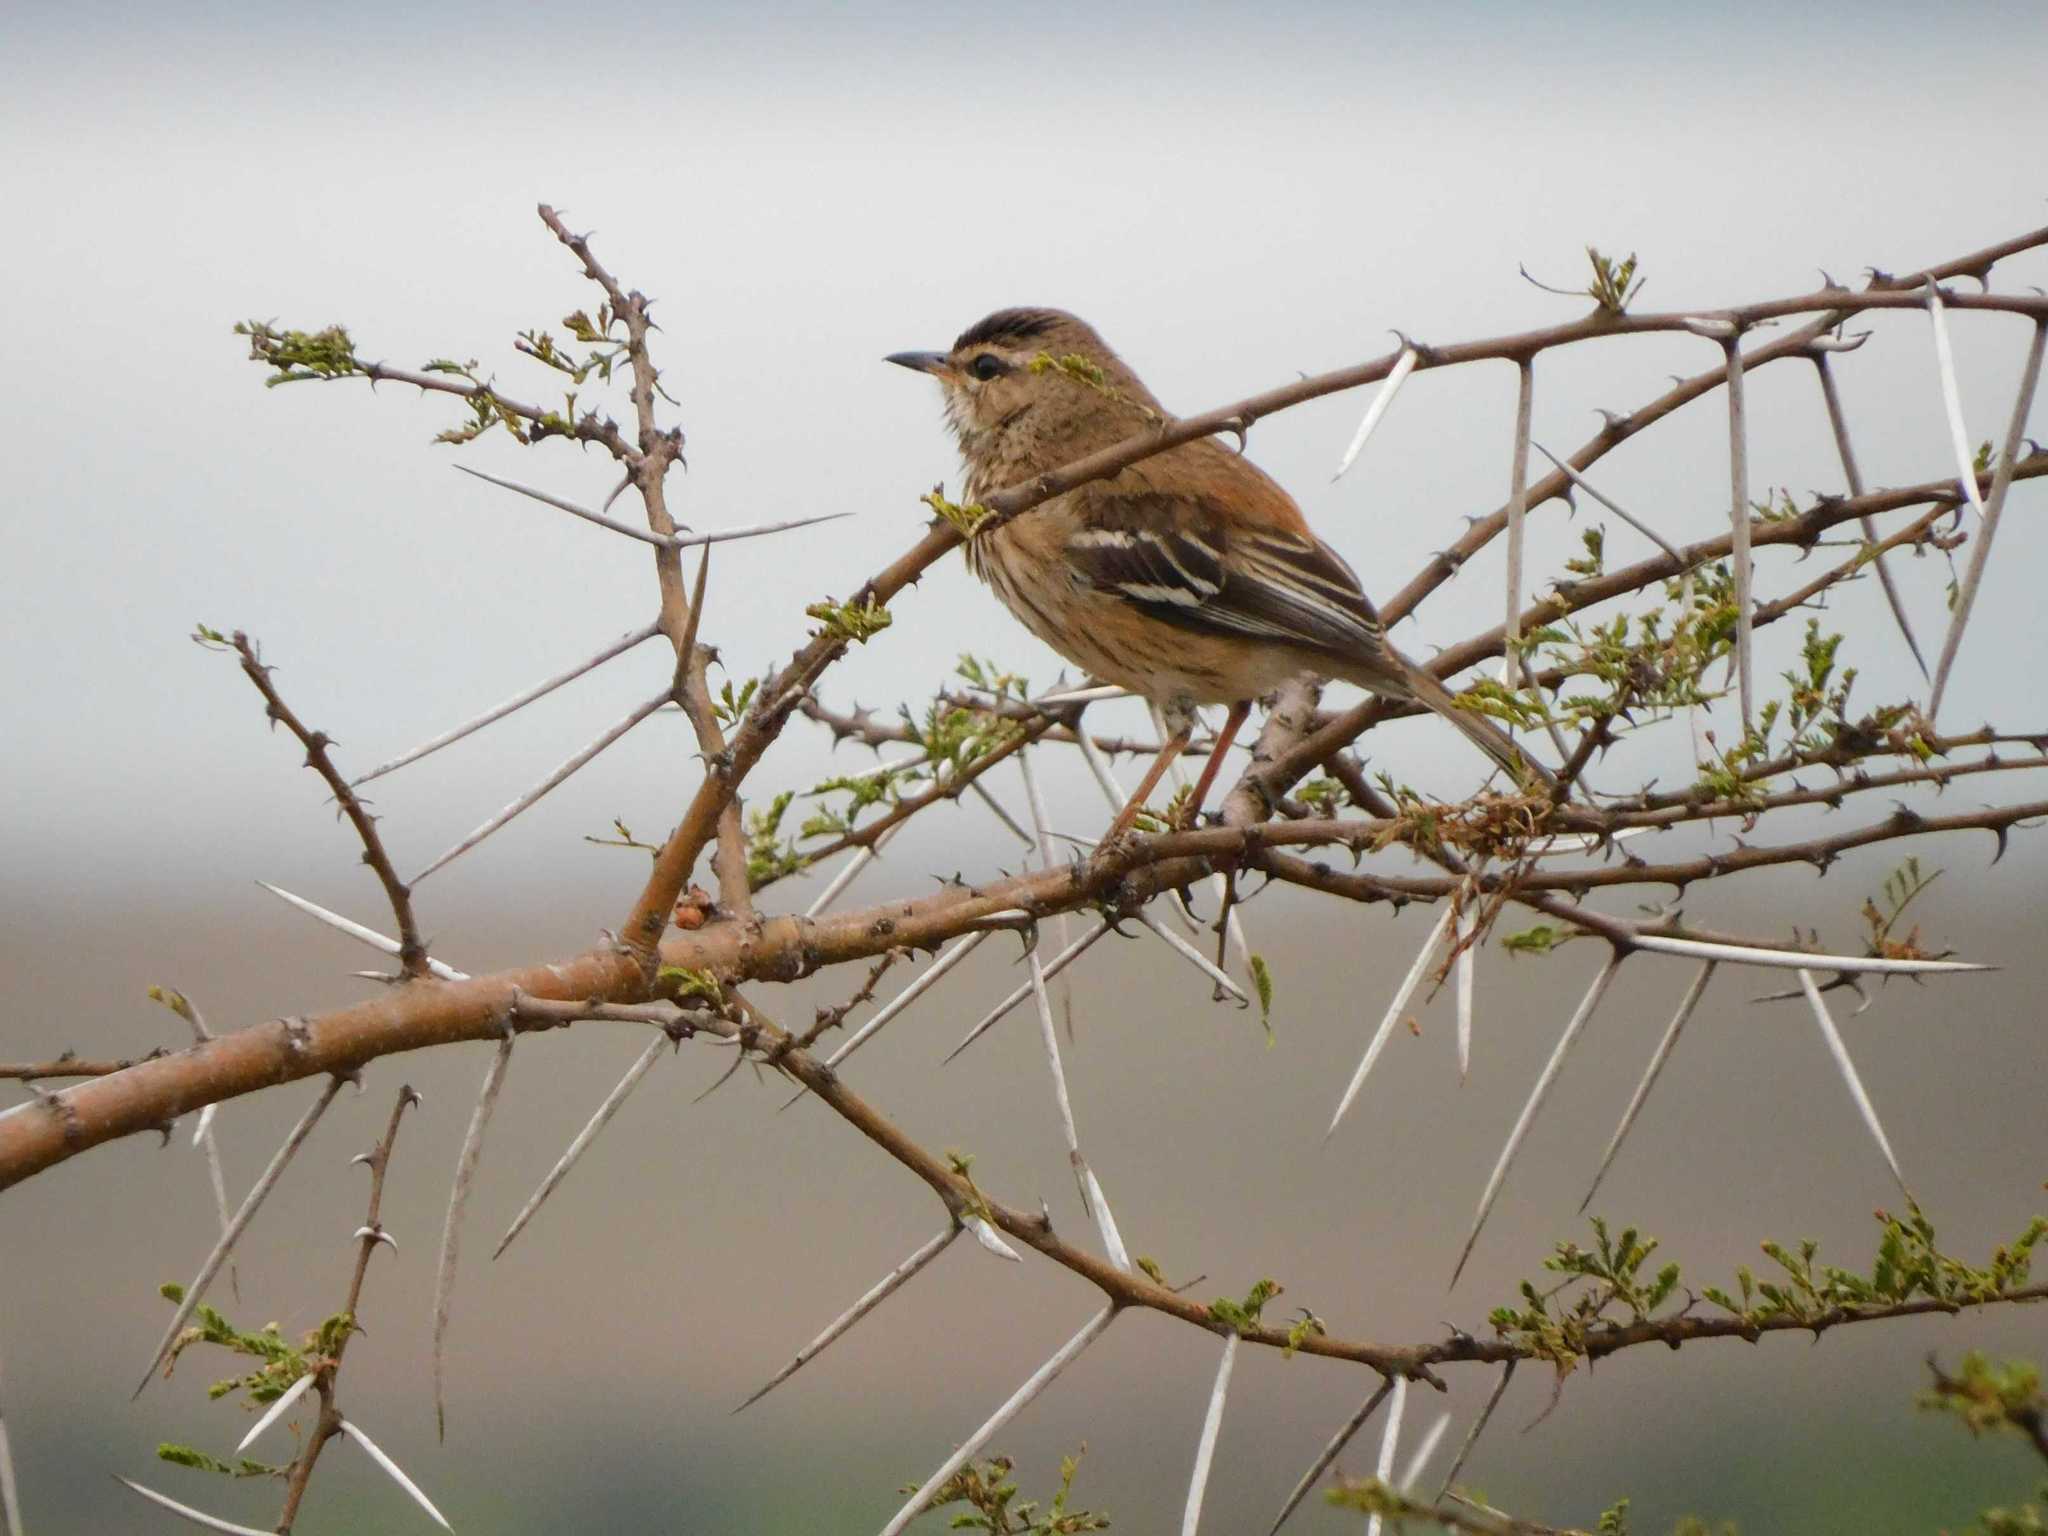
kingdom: Animalia
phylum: Chordata
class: Aves
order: Passeriformes
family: Muscicapidae
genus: Erythropygia
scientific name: Erythropygia leucophrys
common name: White-browed scrub robin
